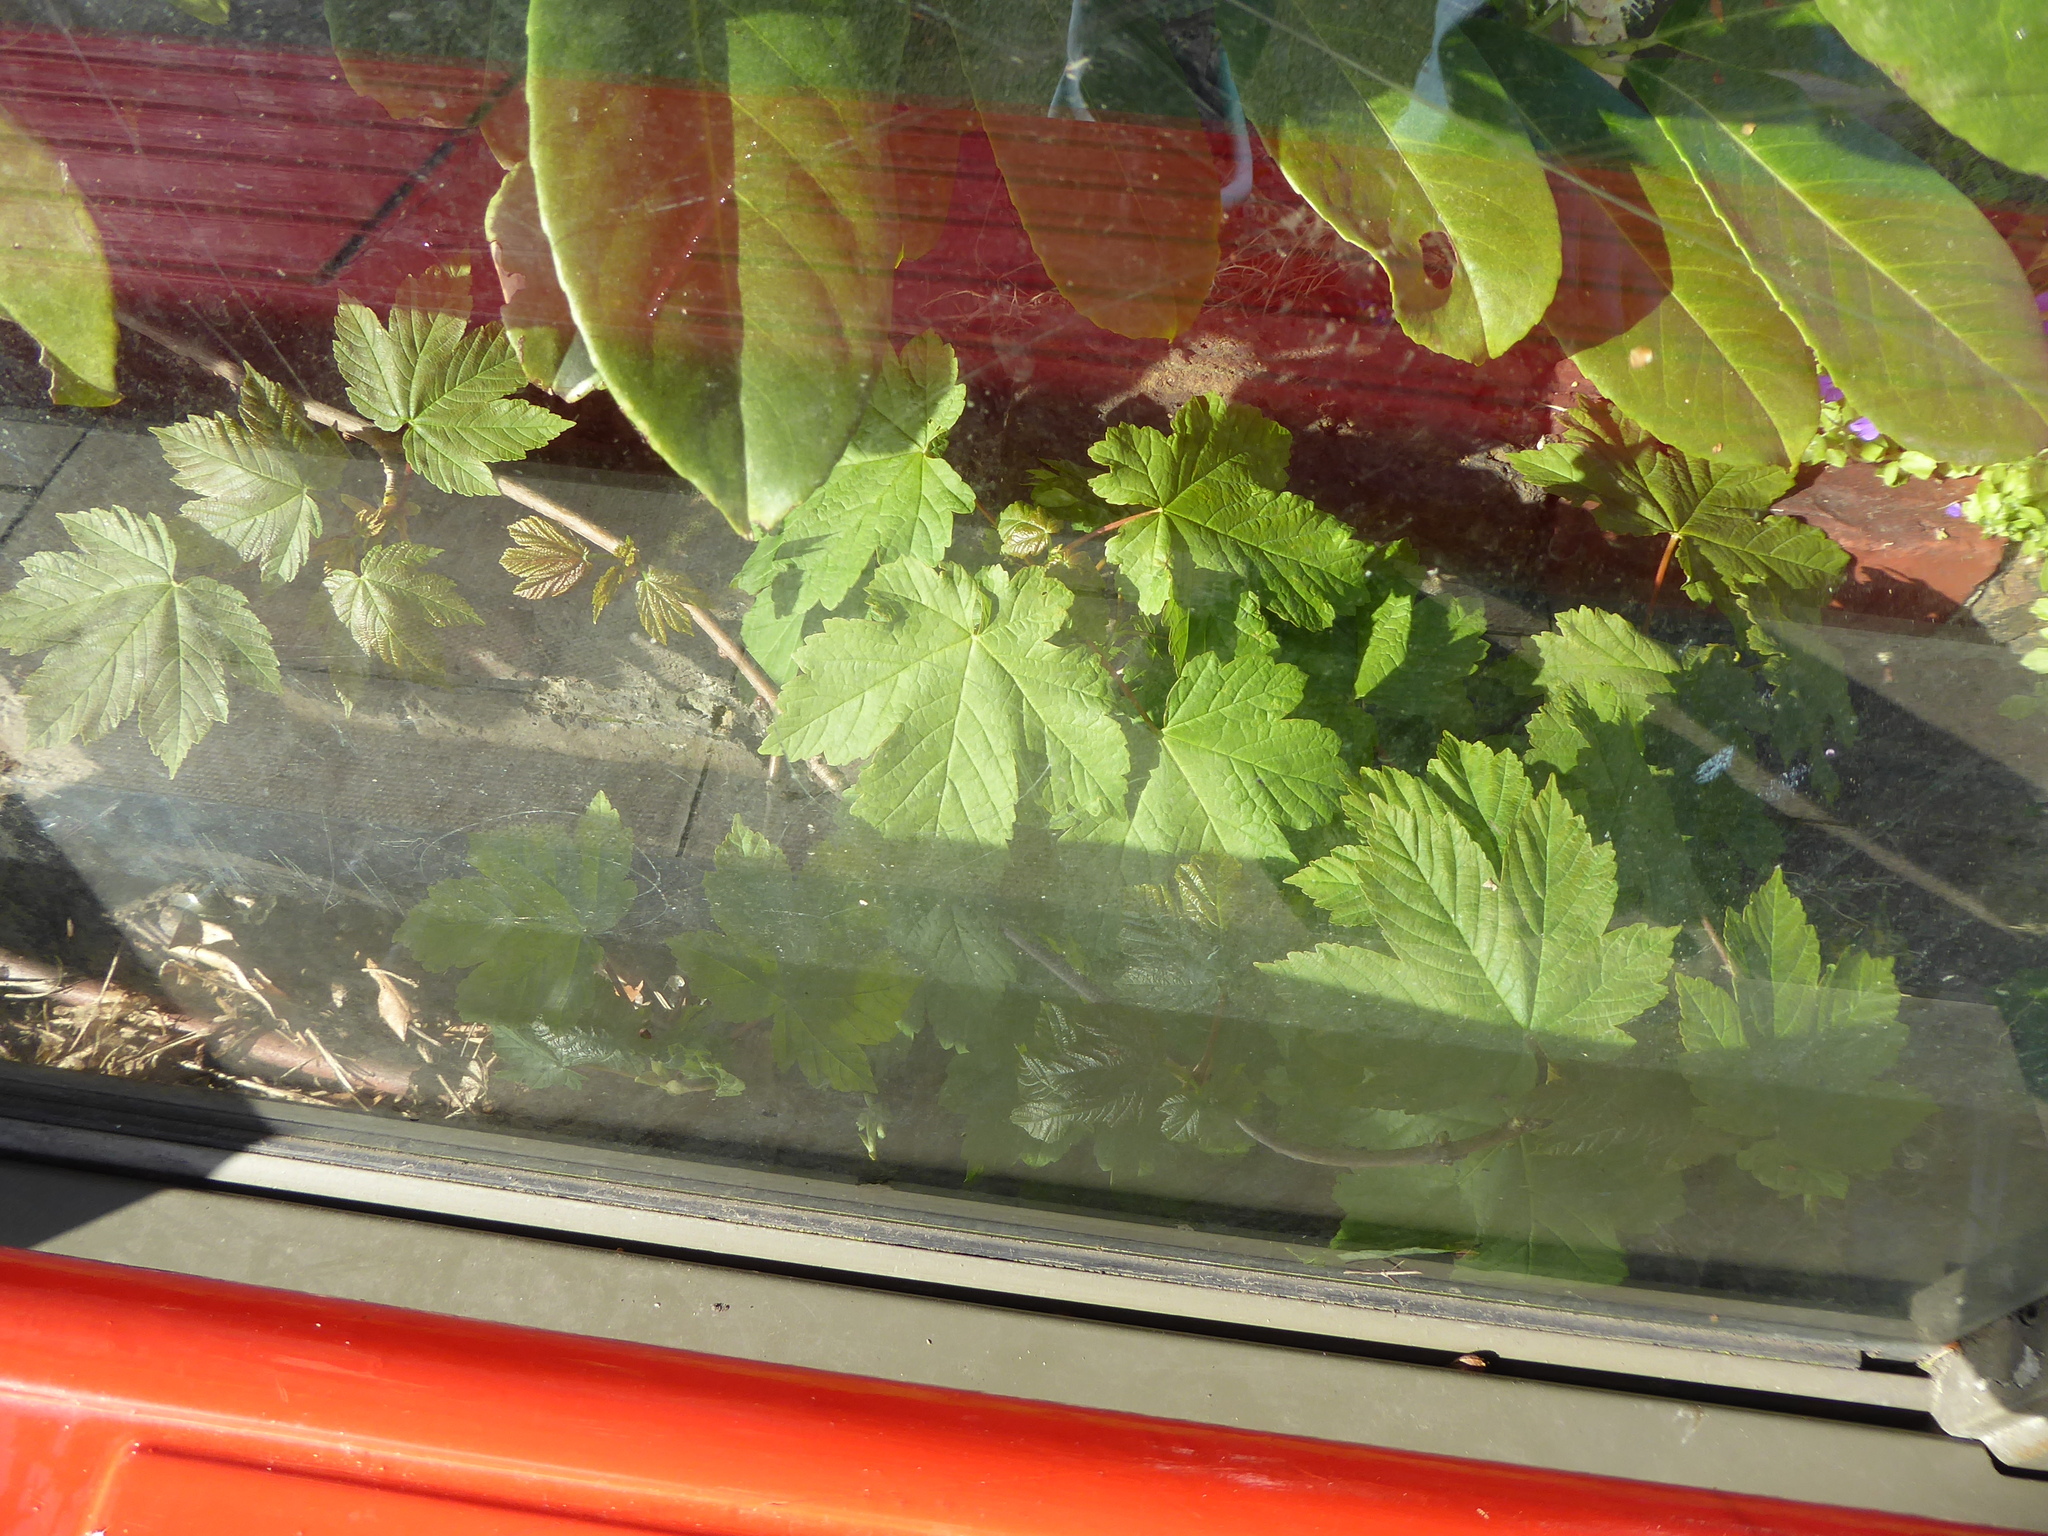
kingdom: Plantae
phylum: Tracheophyta
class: Magnoliopsida
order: Sapindales
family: Sapindaceae
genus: Acer
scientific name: Acer pseudoplatanus
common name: Sycamore
